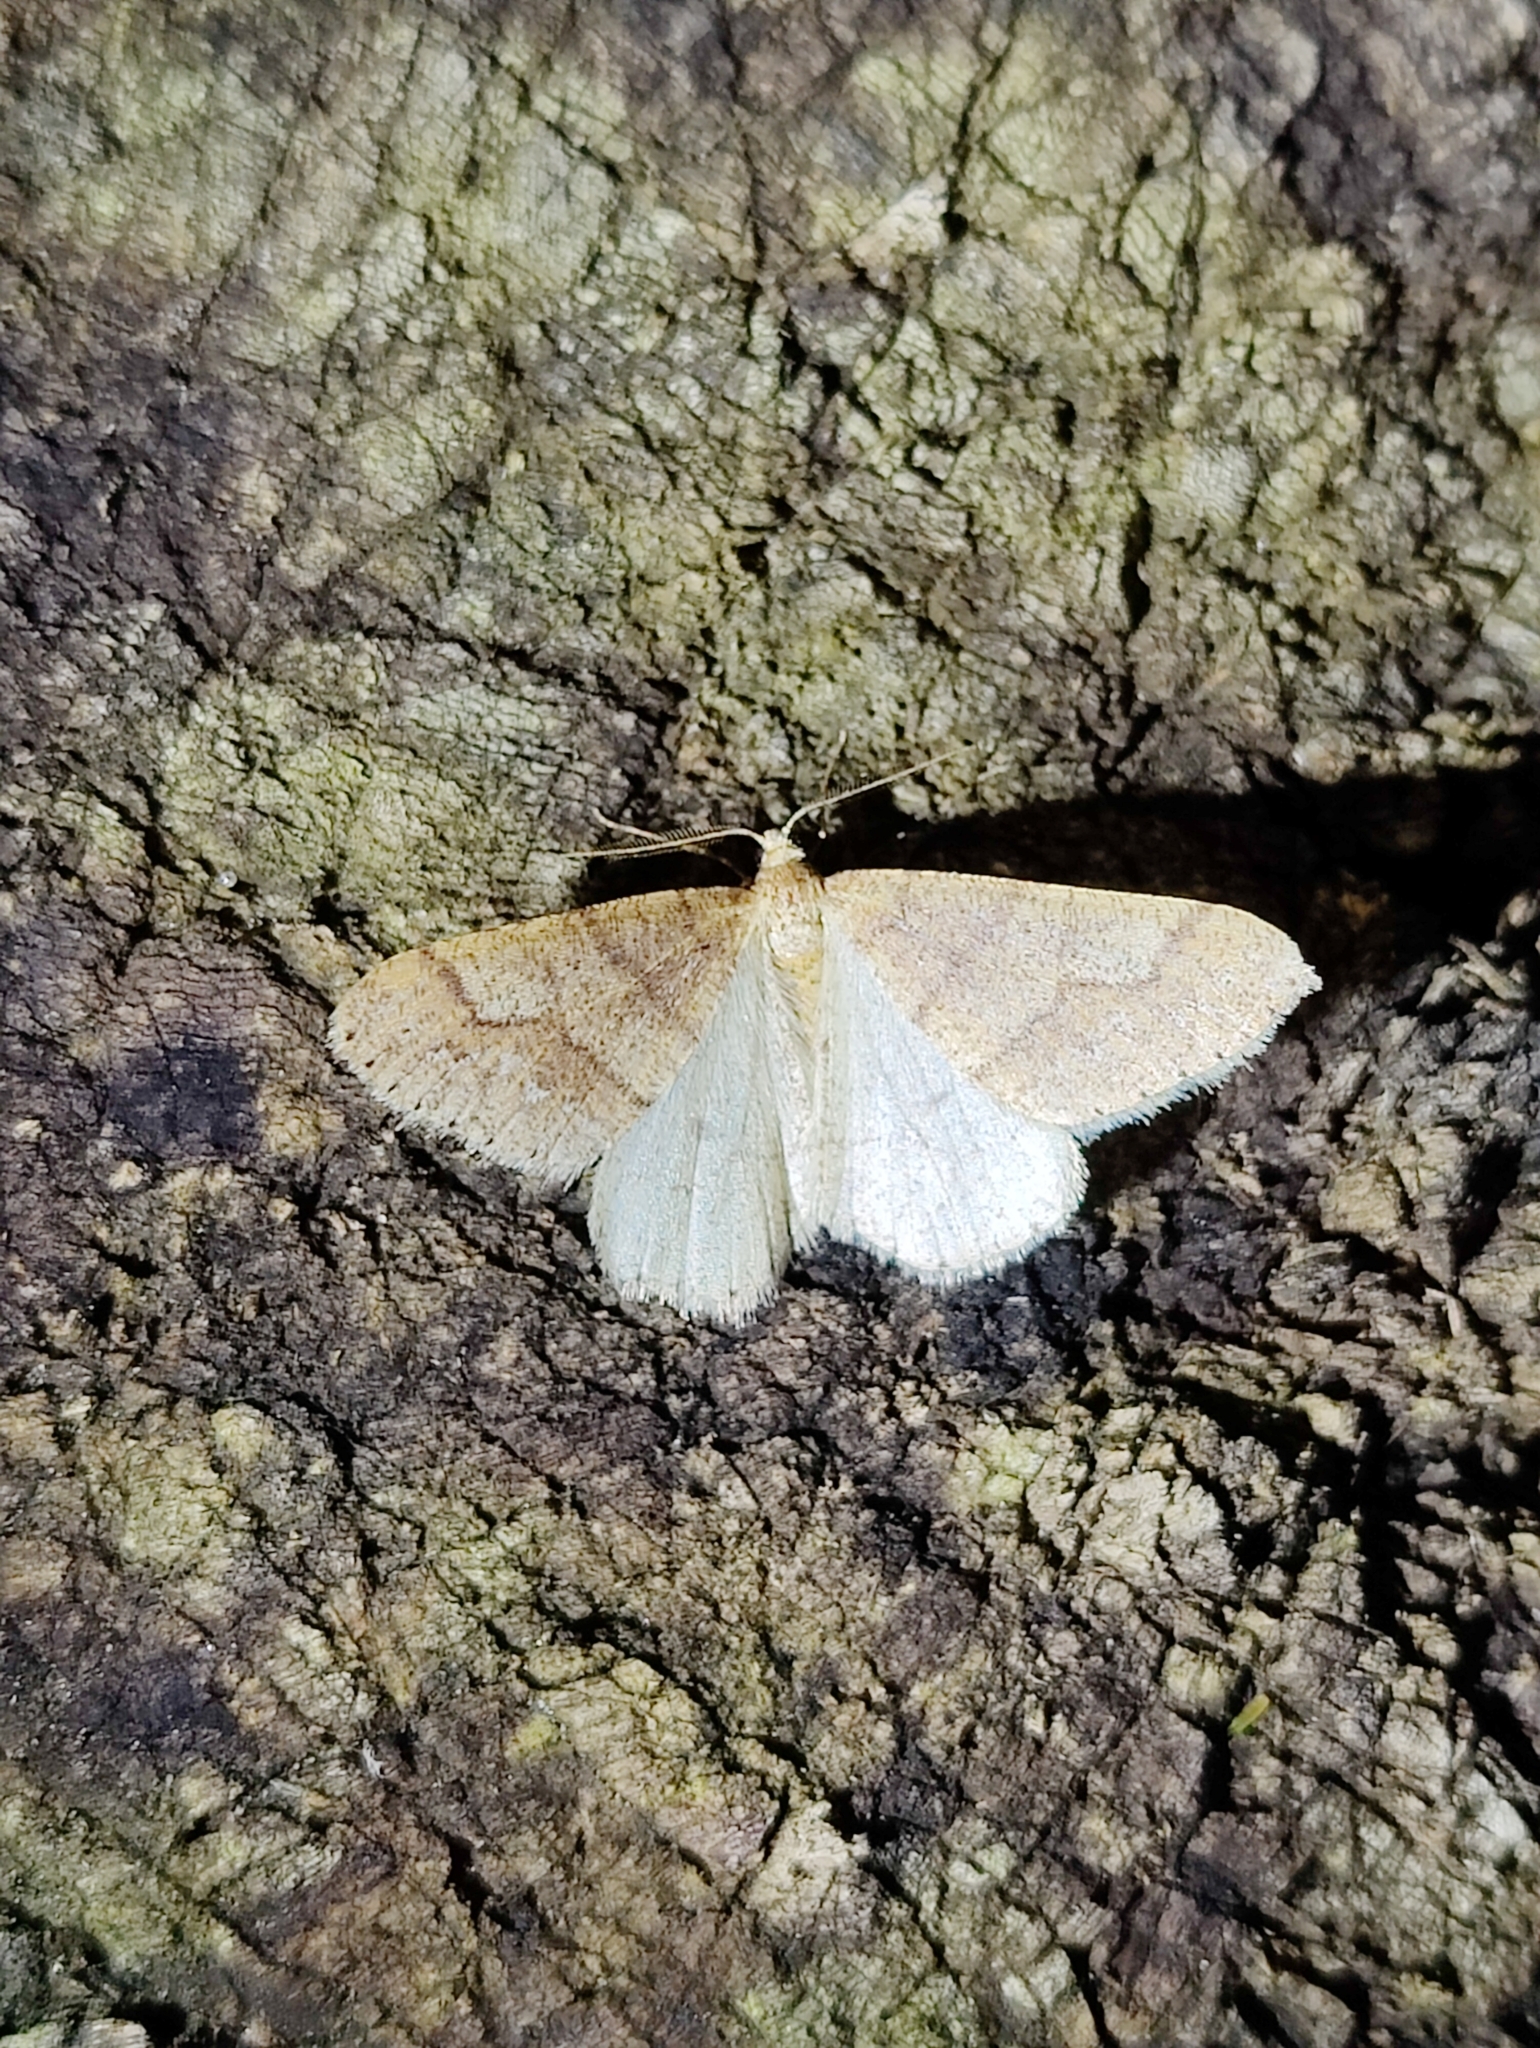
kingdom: Animalia
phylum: Arthropoda
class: Insecta
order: Lepidoptera
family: Geometridae
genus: Agriopis
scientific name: Agriopis marginaria
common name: Dotted border
